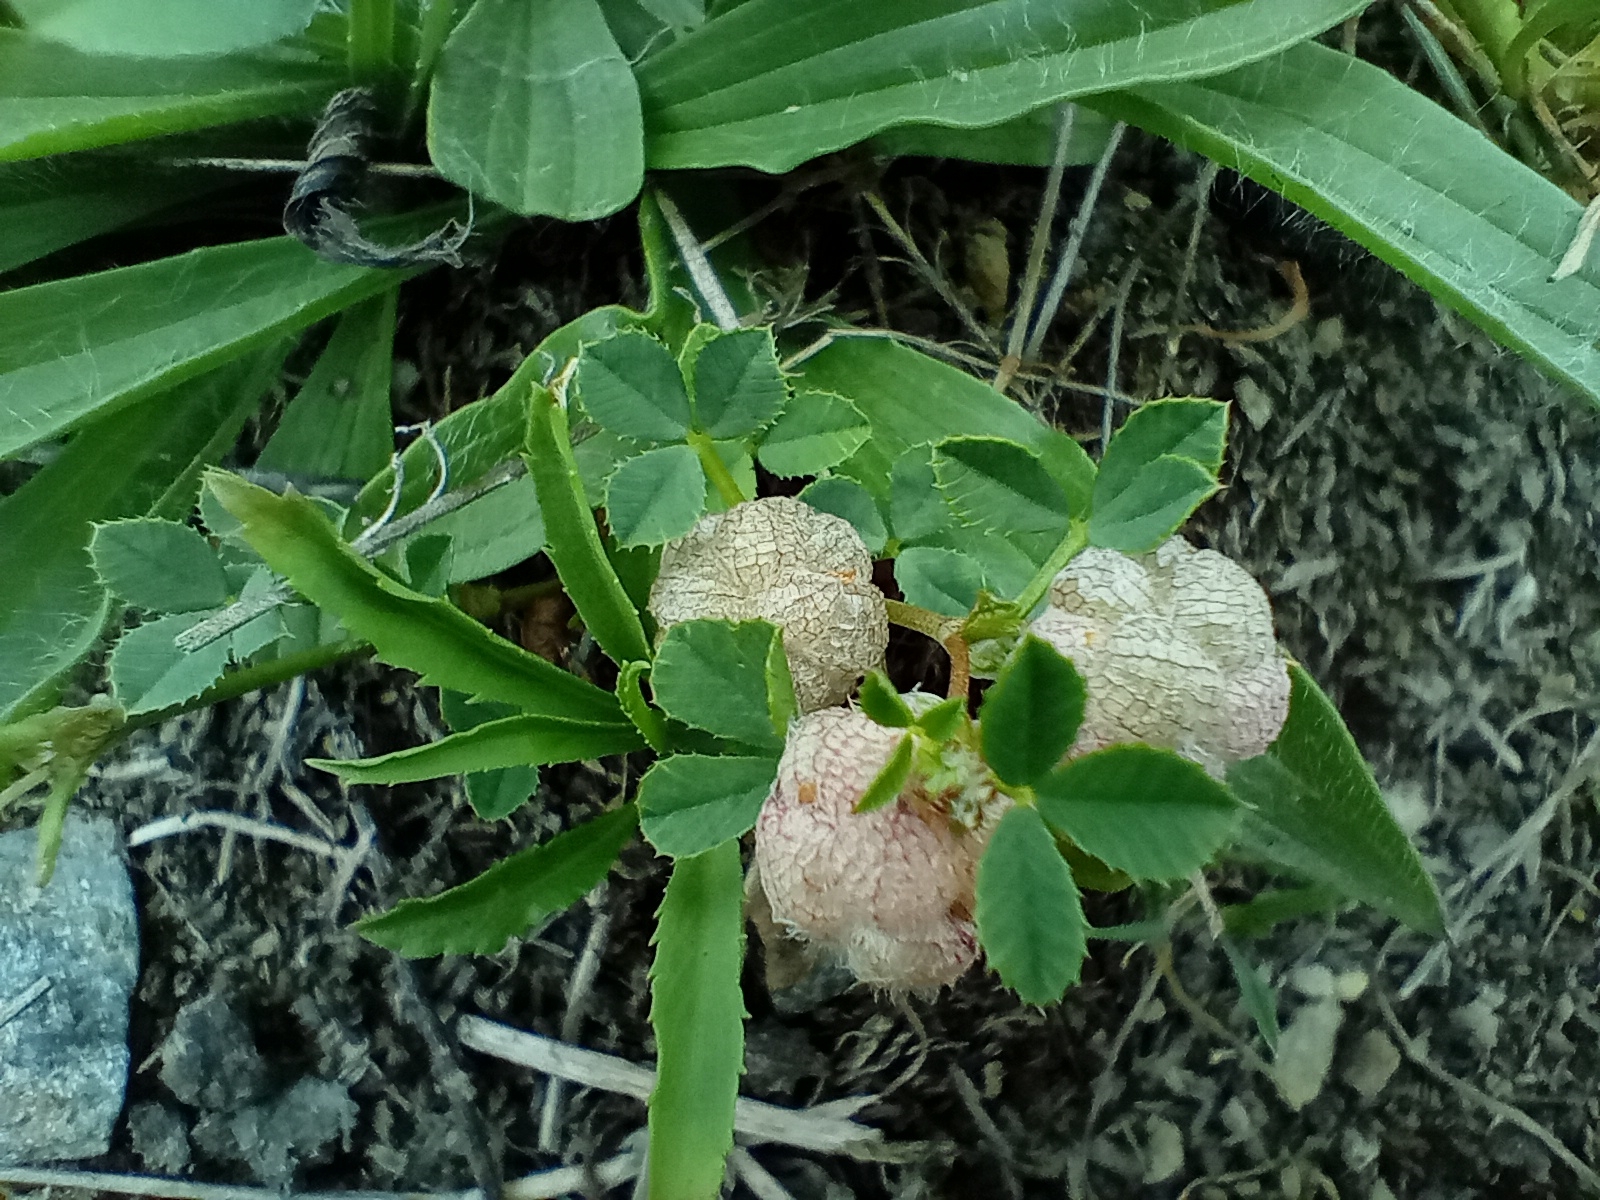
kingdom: Plantae
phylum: Tracheophyta
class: Magnoliopsida
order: Fabales
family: Fabaceae
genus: Trifolium
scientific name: Trifolium tomentosum
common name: Woolly clover
